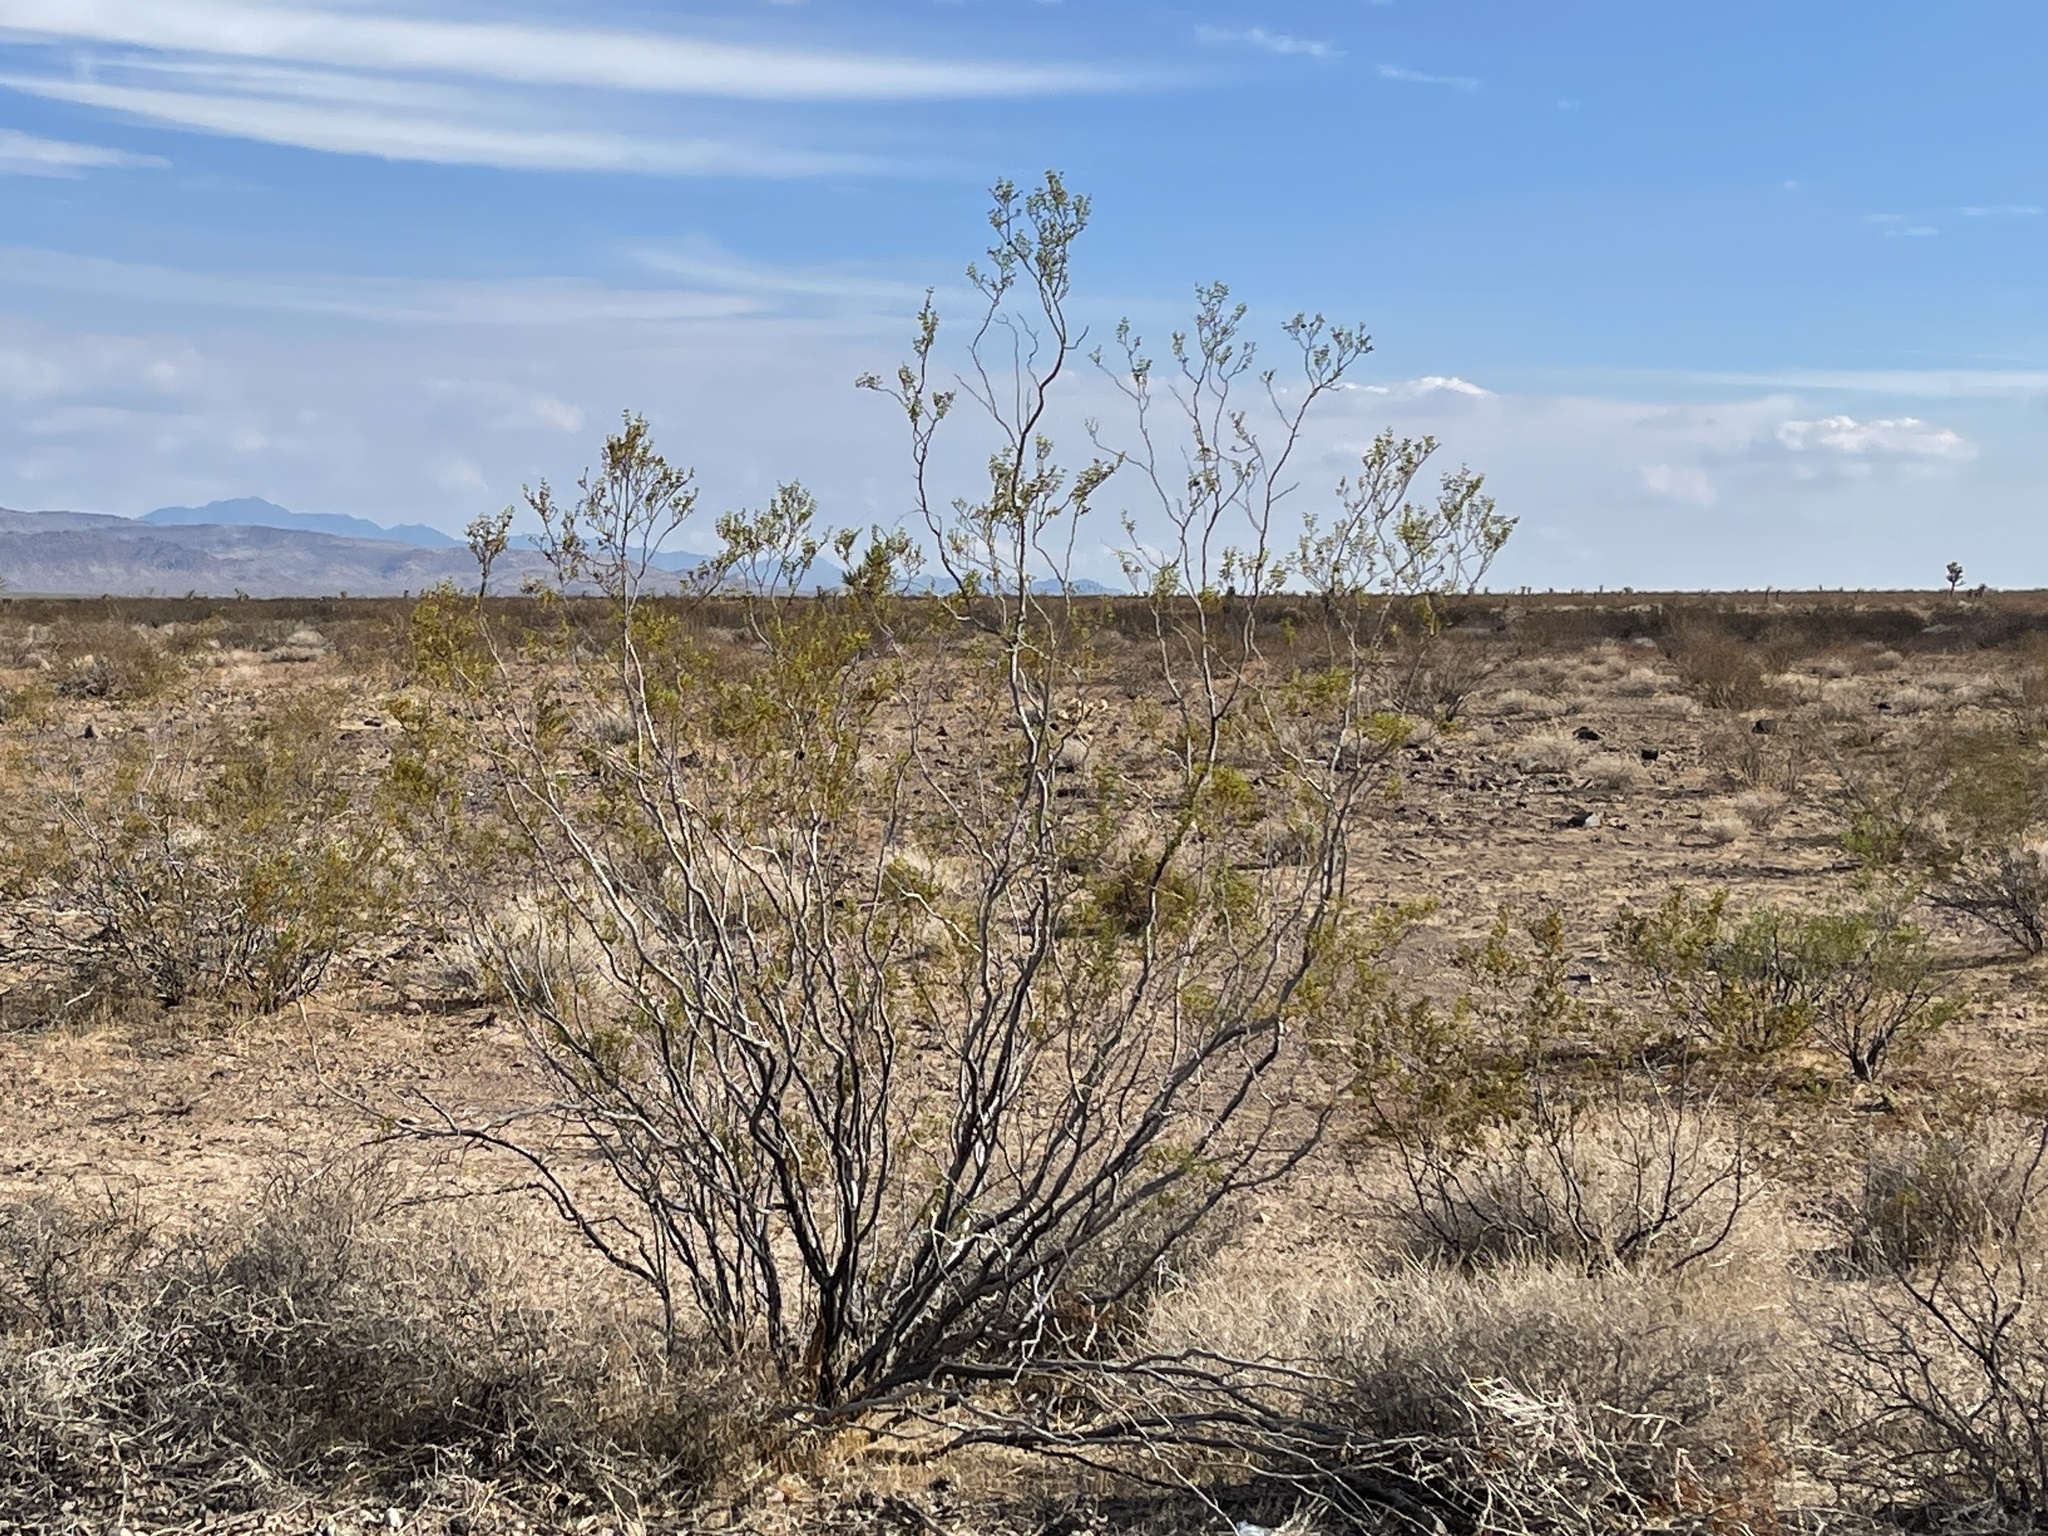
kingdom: Plantae
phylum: Tracheophyta
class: Magnoliopsida
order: Zygophyllales
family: Zygophyllaceae
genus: Larrea
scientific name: Larrea tridentata
